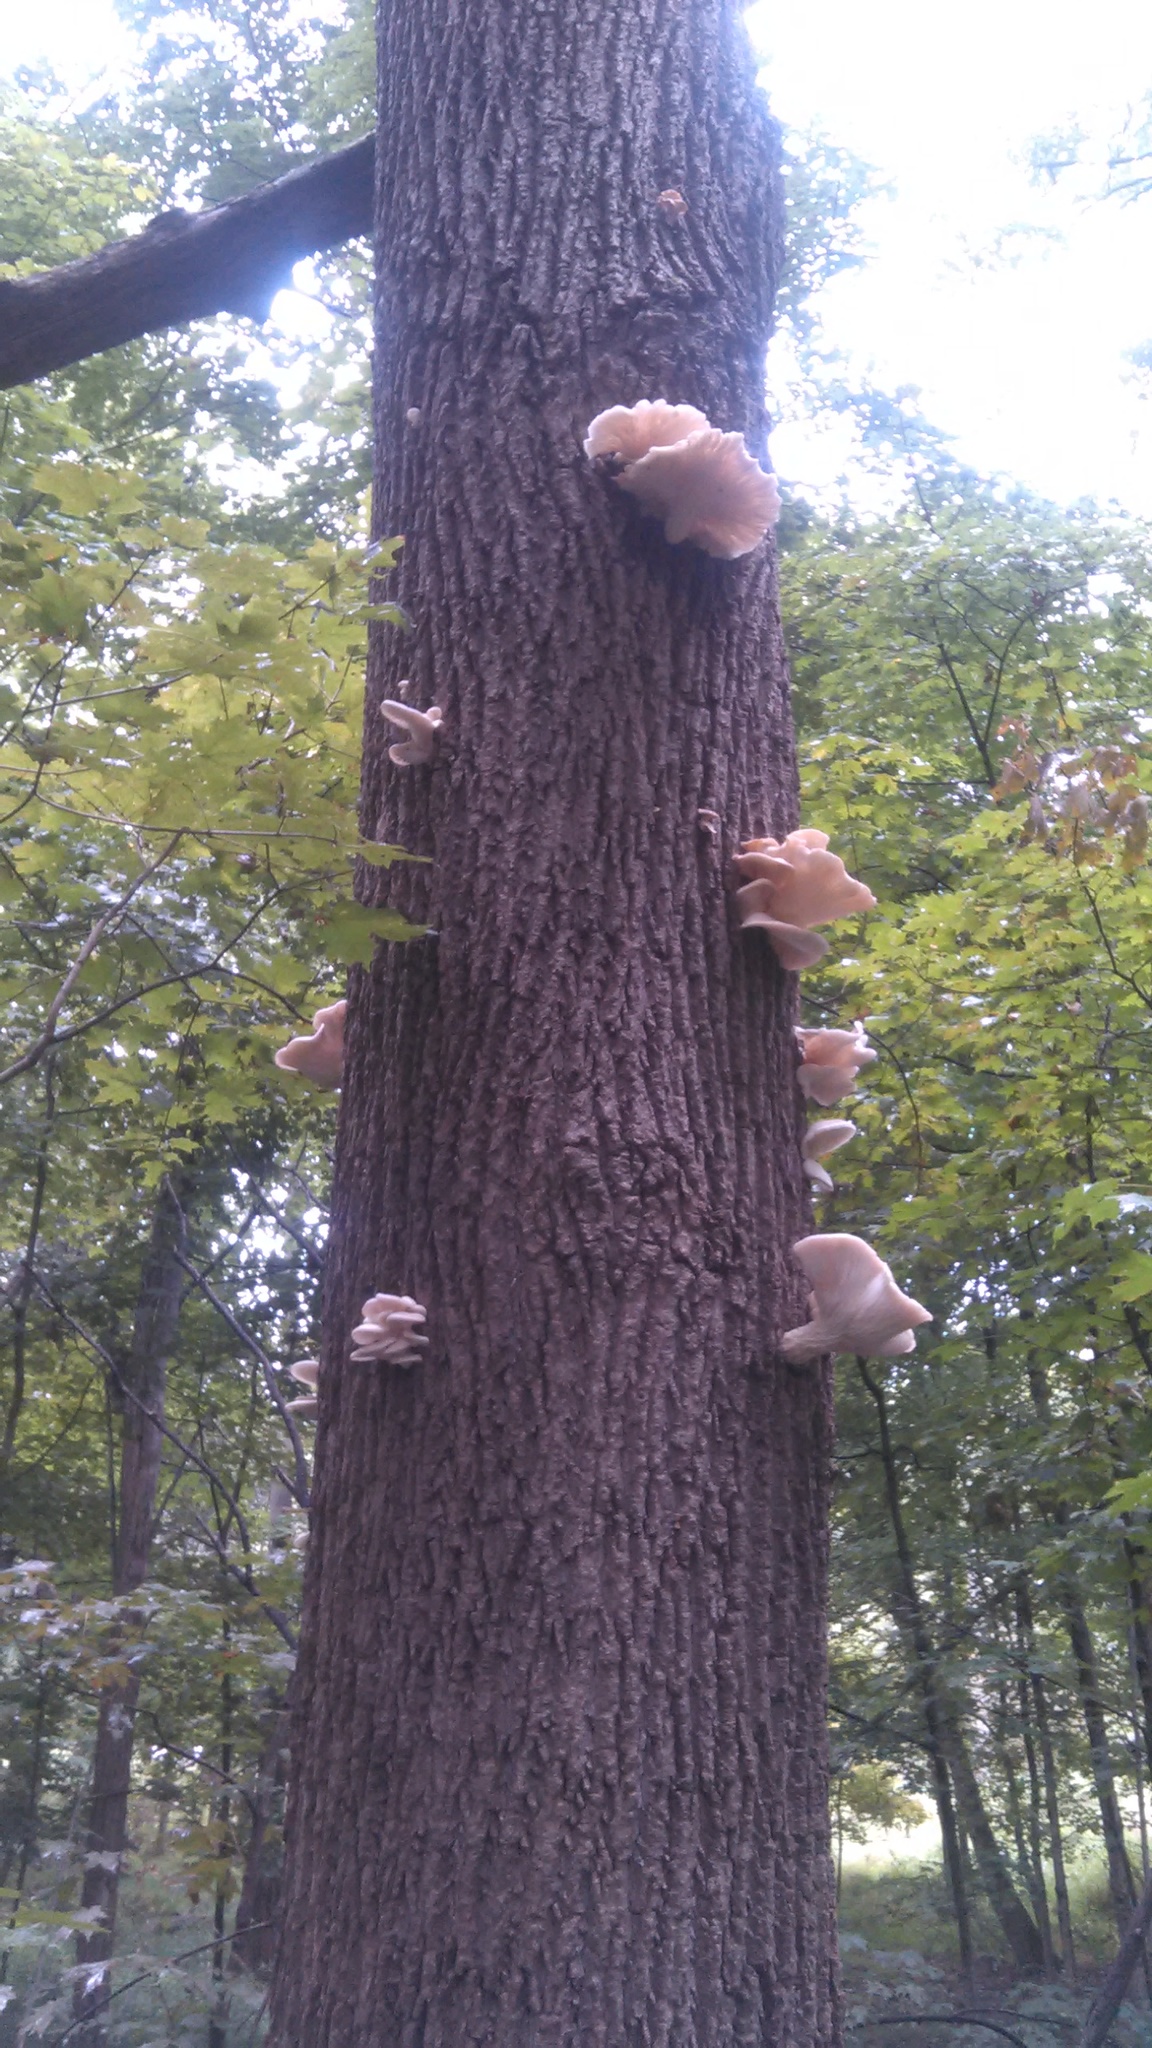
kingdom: Fungi
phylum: Basidiomycota
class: Agaricomycetes
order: Agaricales
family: Pleurotaceae
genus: Pleurotus
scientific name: Pleurotus populinus
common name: Aspen oyster mushroom
